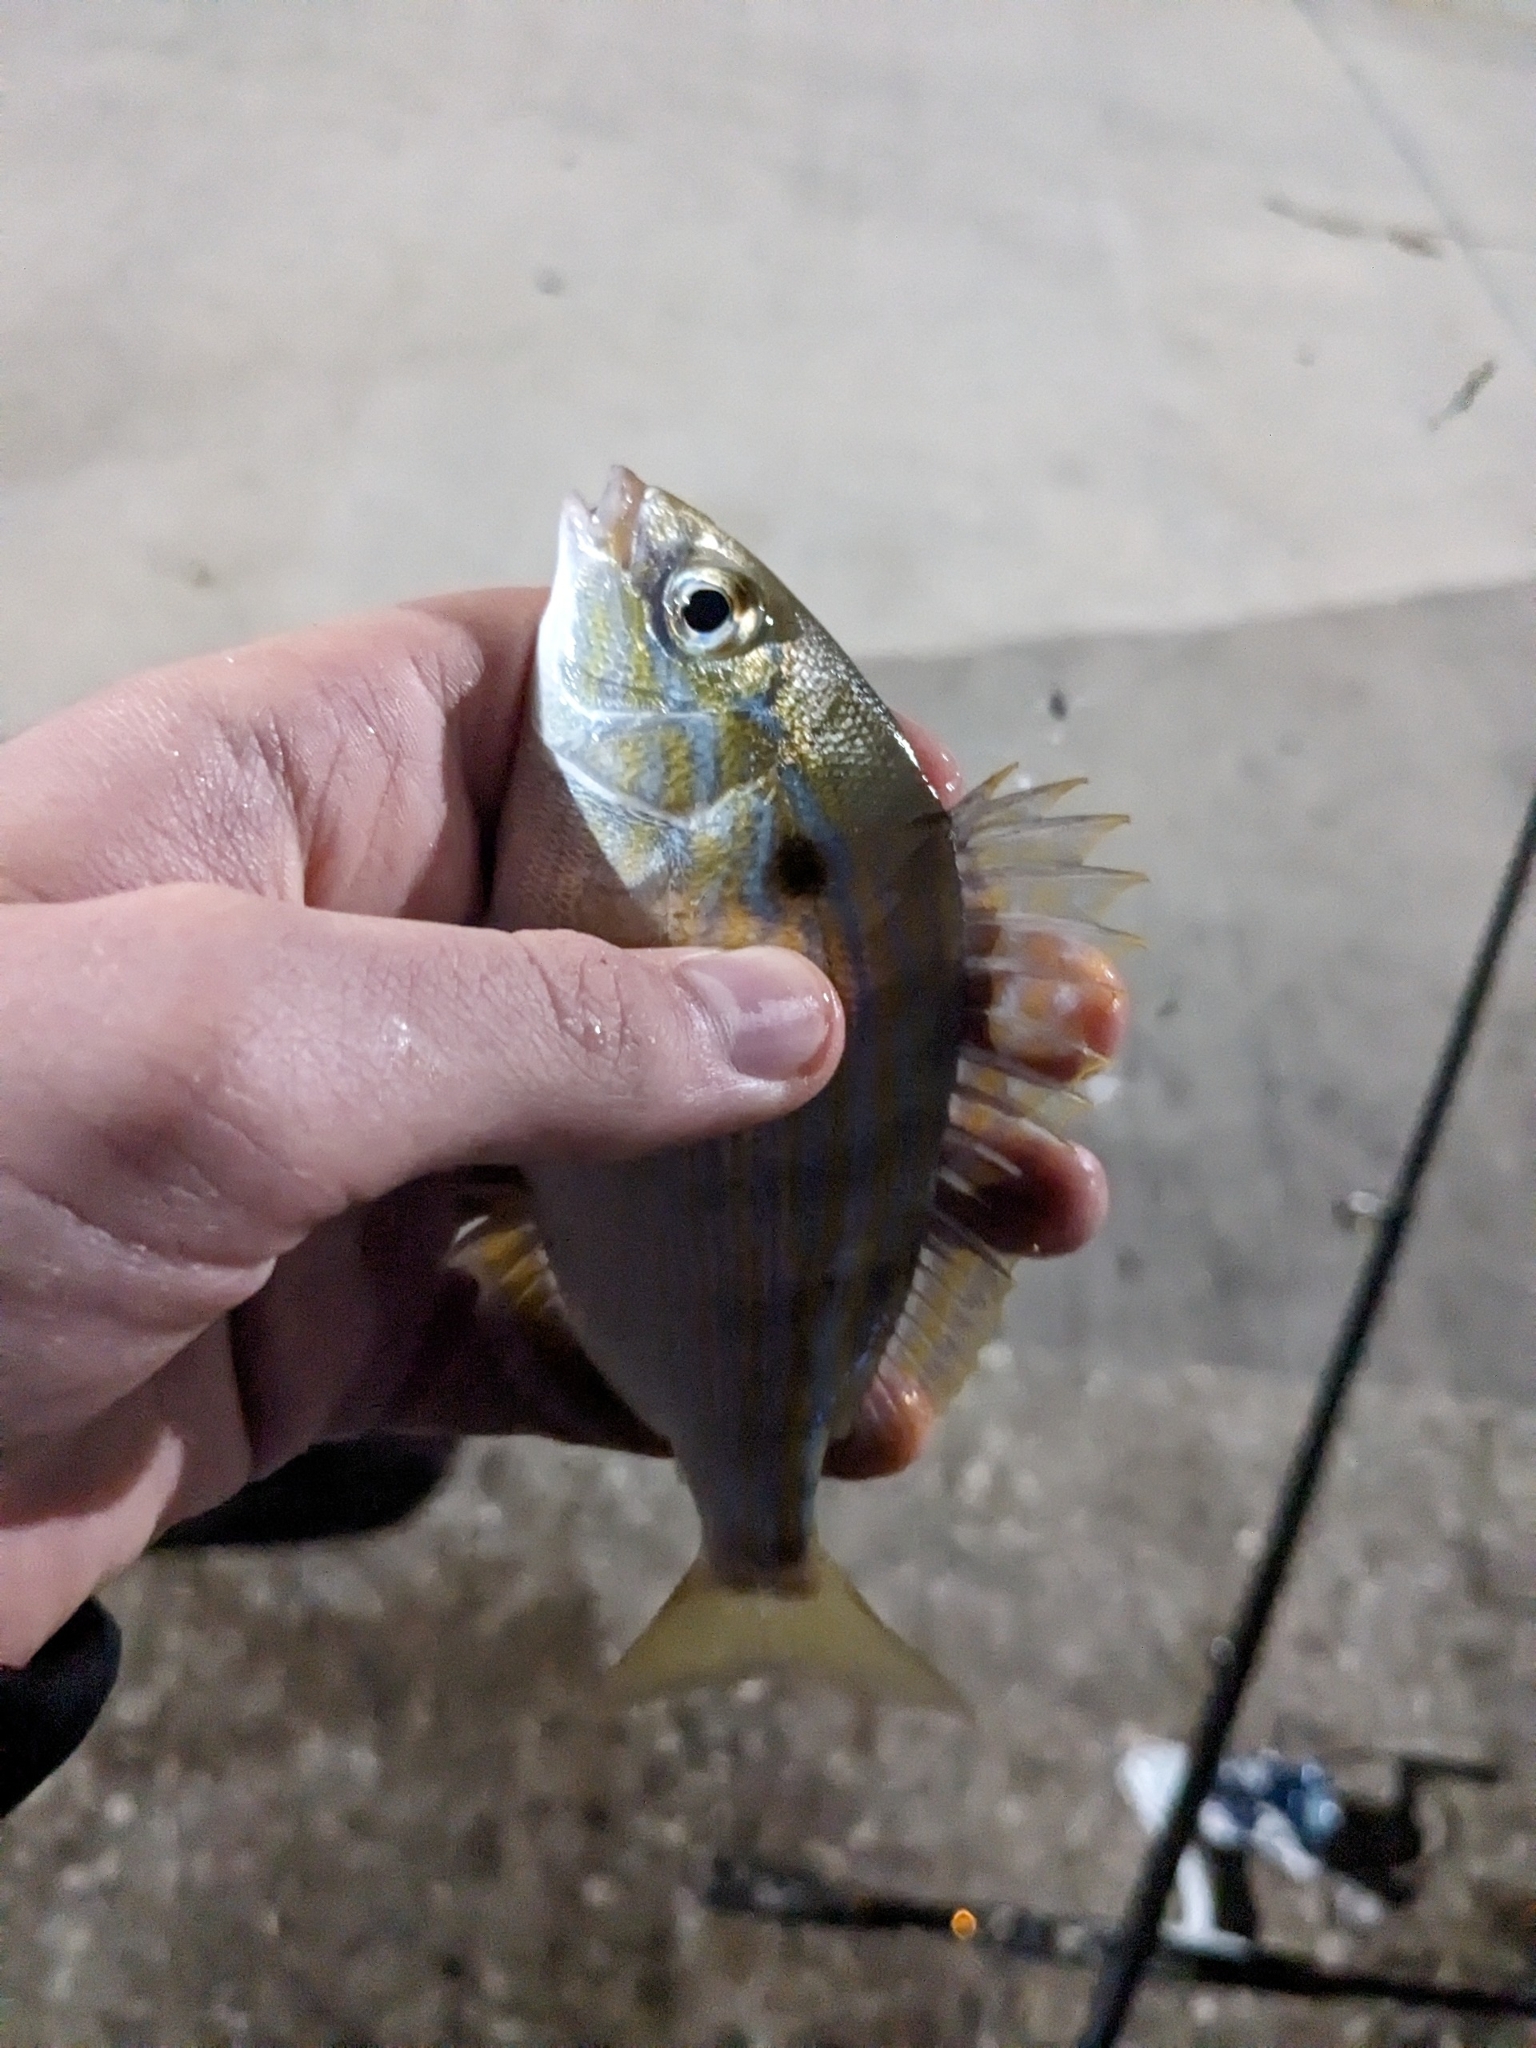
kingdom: Animalia
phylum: Chordata
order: Perciformes
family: Sparidae
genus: Lagodon
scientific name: Lagodon rhomboides
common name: Pinfish
